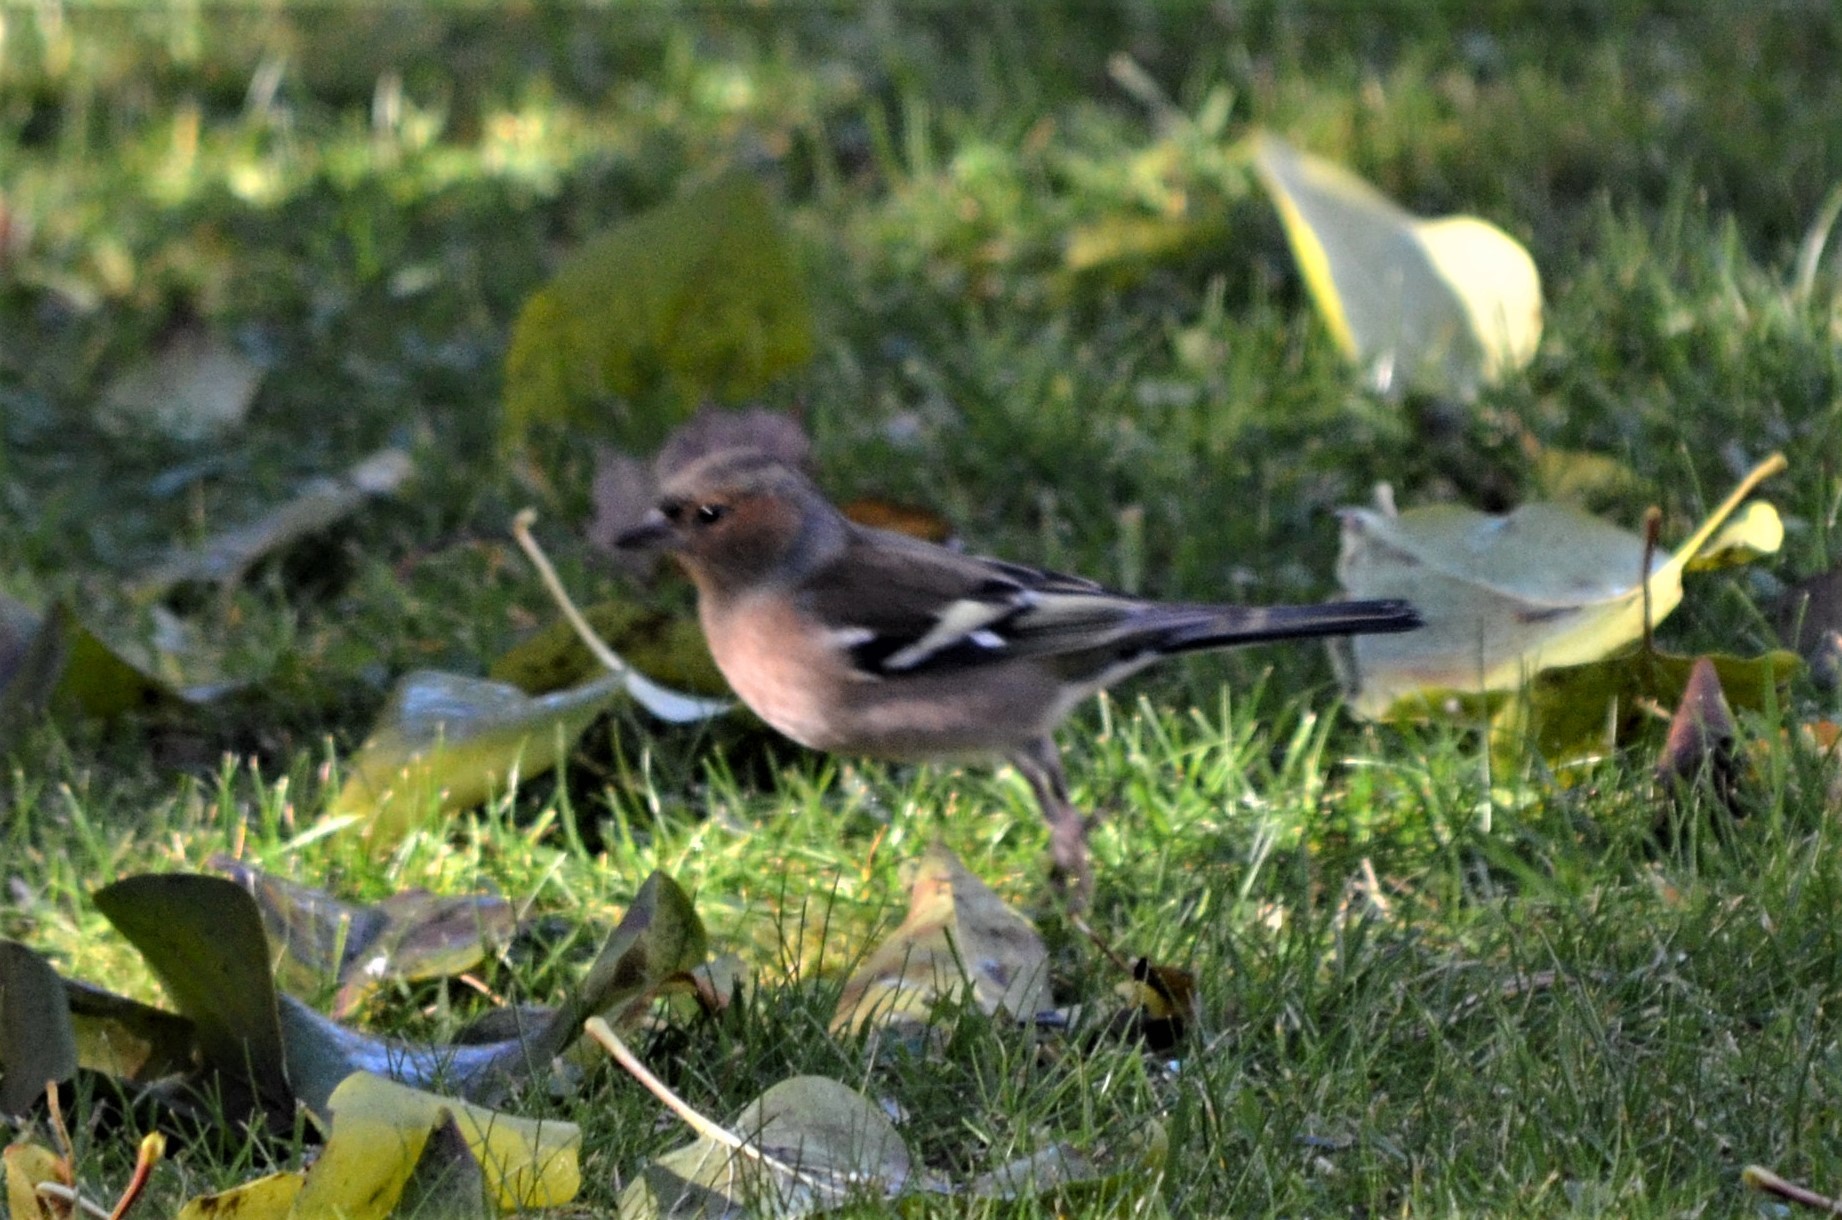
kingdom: Animalia
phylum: Chordata
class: Aves
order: Passeriformes
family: Fringillidae
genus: Fringilla
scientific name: Fringilla coelebs
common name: Common chaffinch
